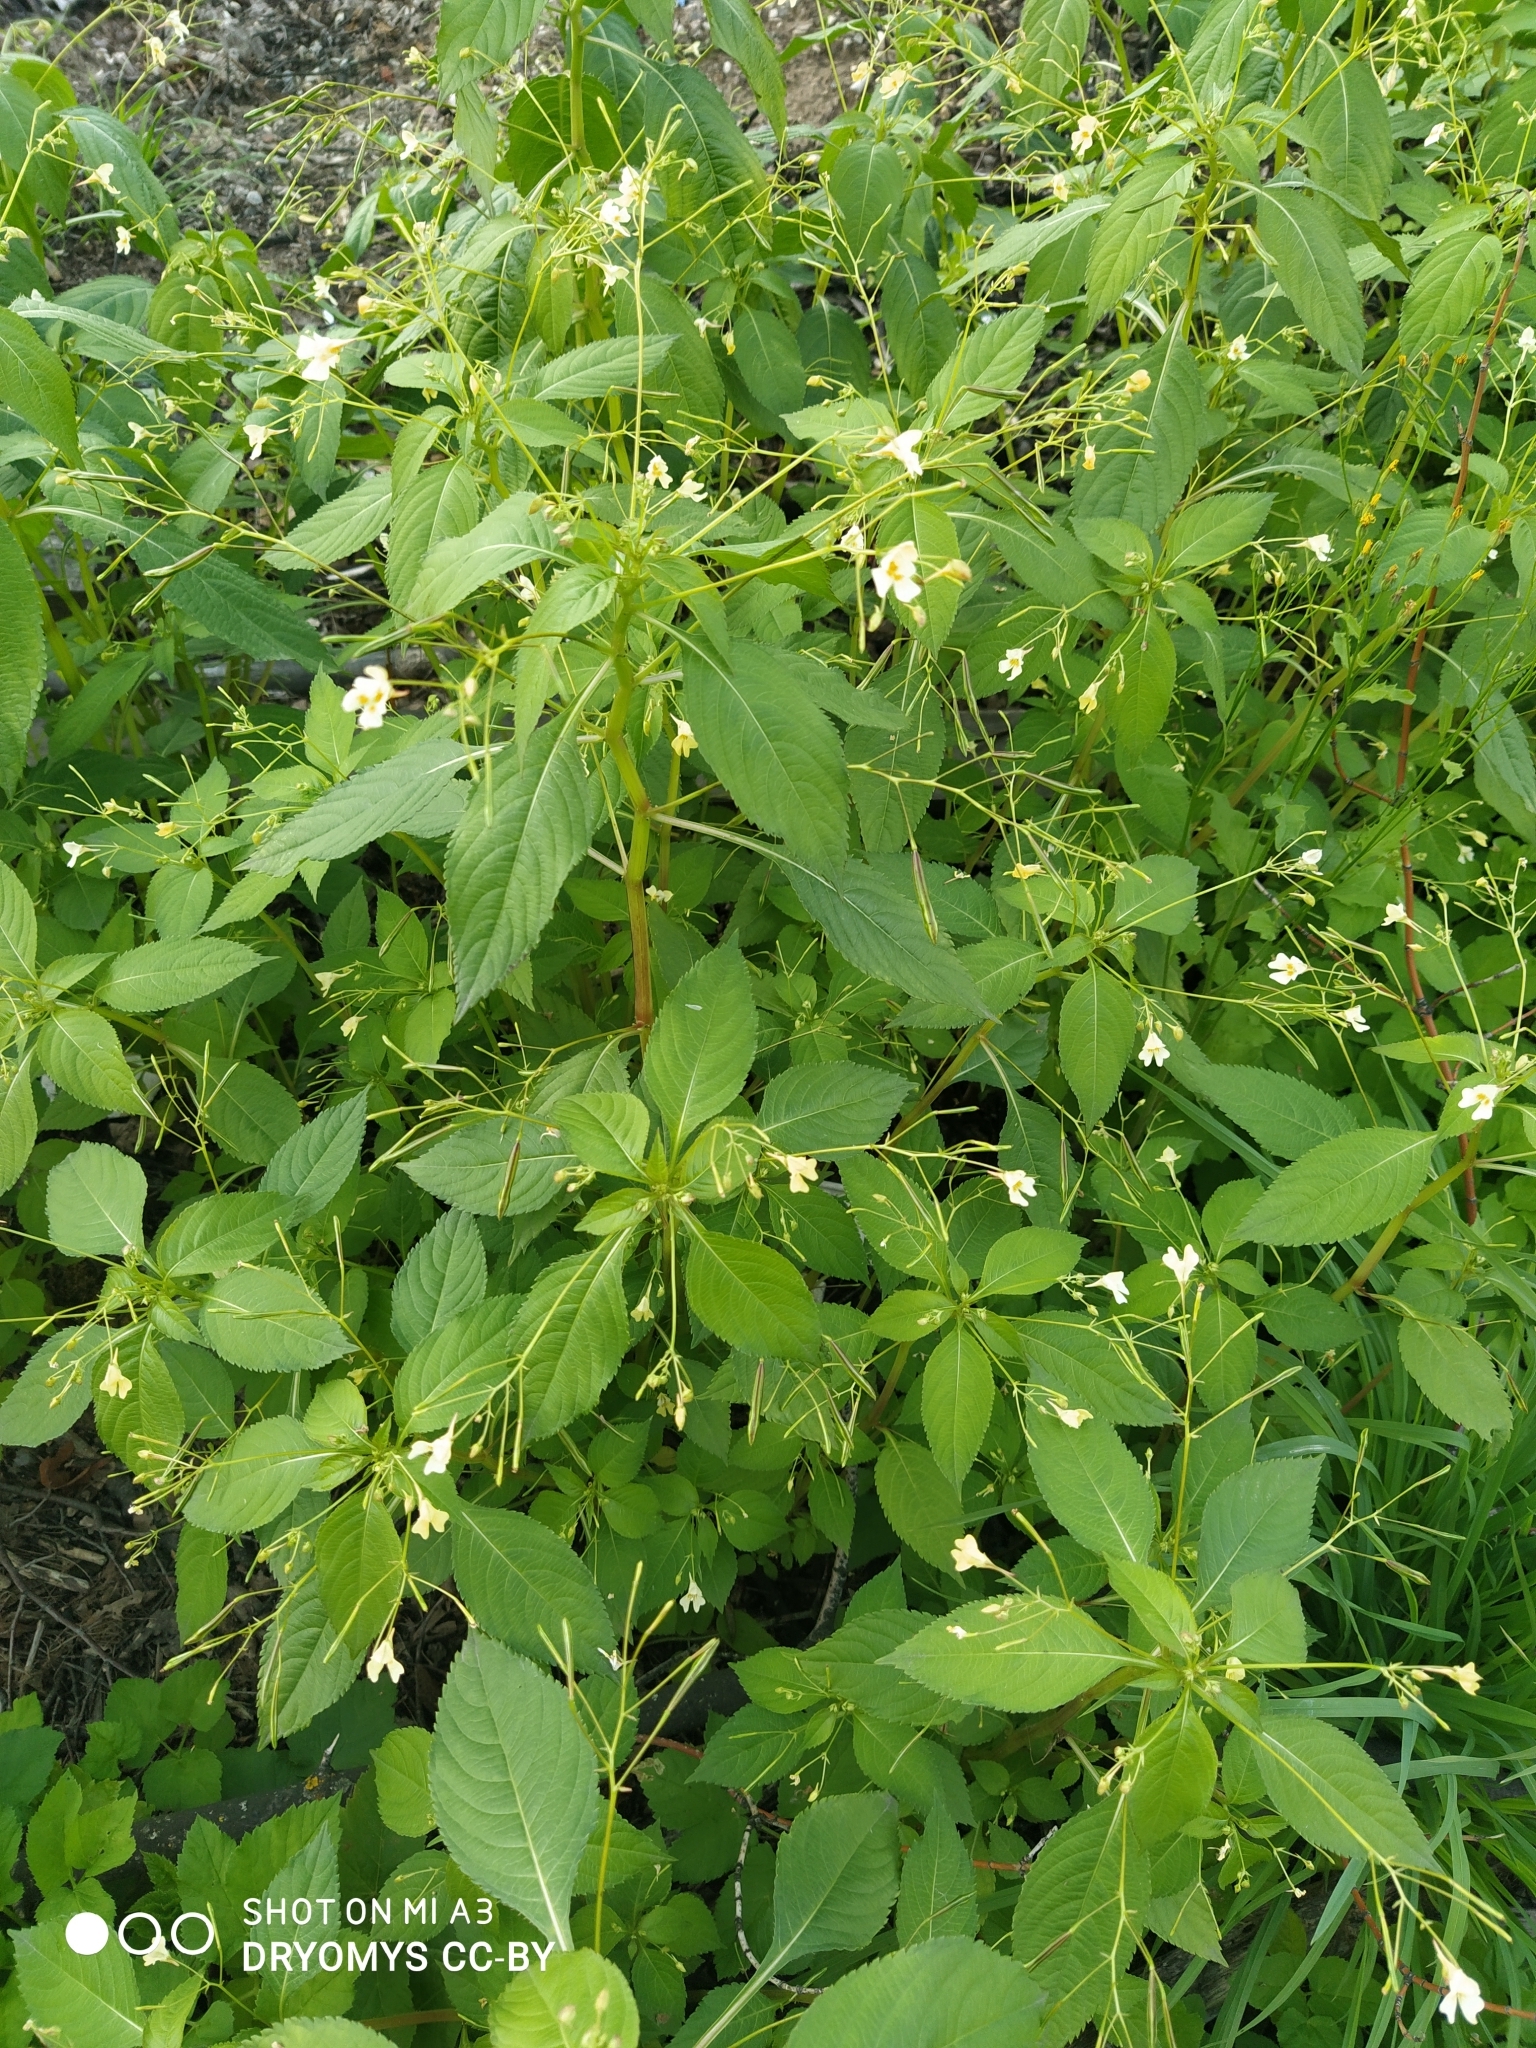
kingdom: Plantae
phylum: Tracheophyta
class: Magnoliopsida
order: Ericales
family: Balsaminaceae
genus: Impatiens
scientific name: Impatiens parviflora
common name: Small balsam
